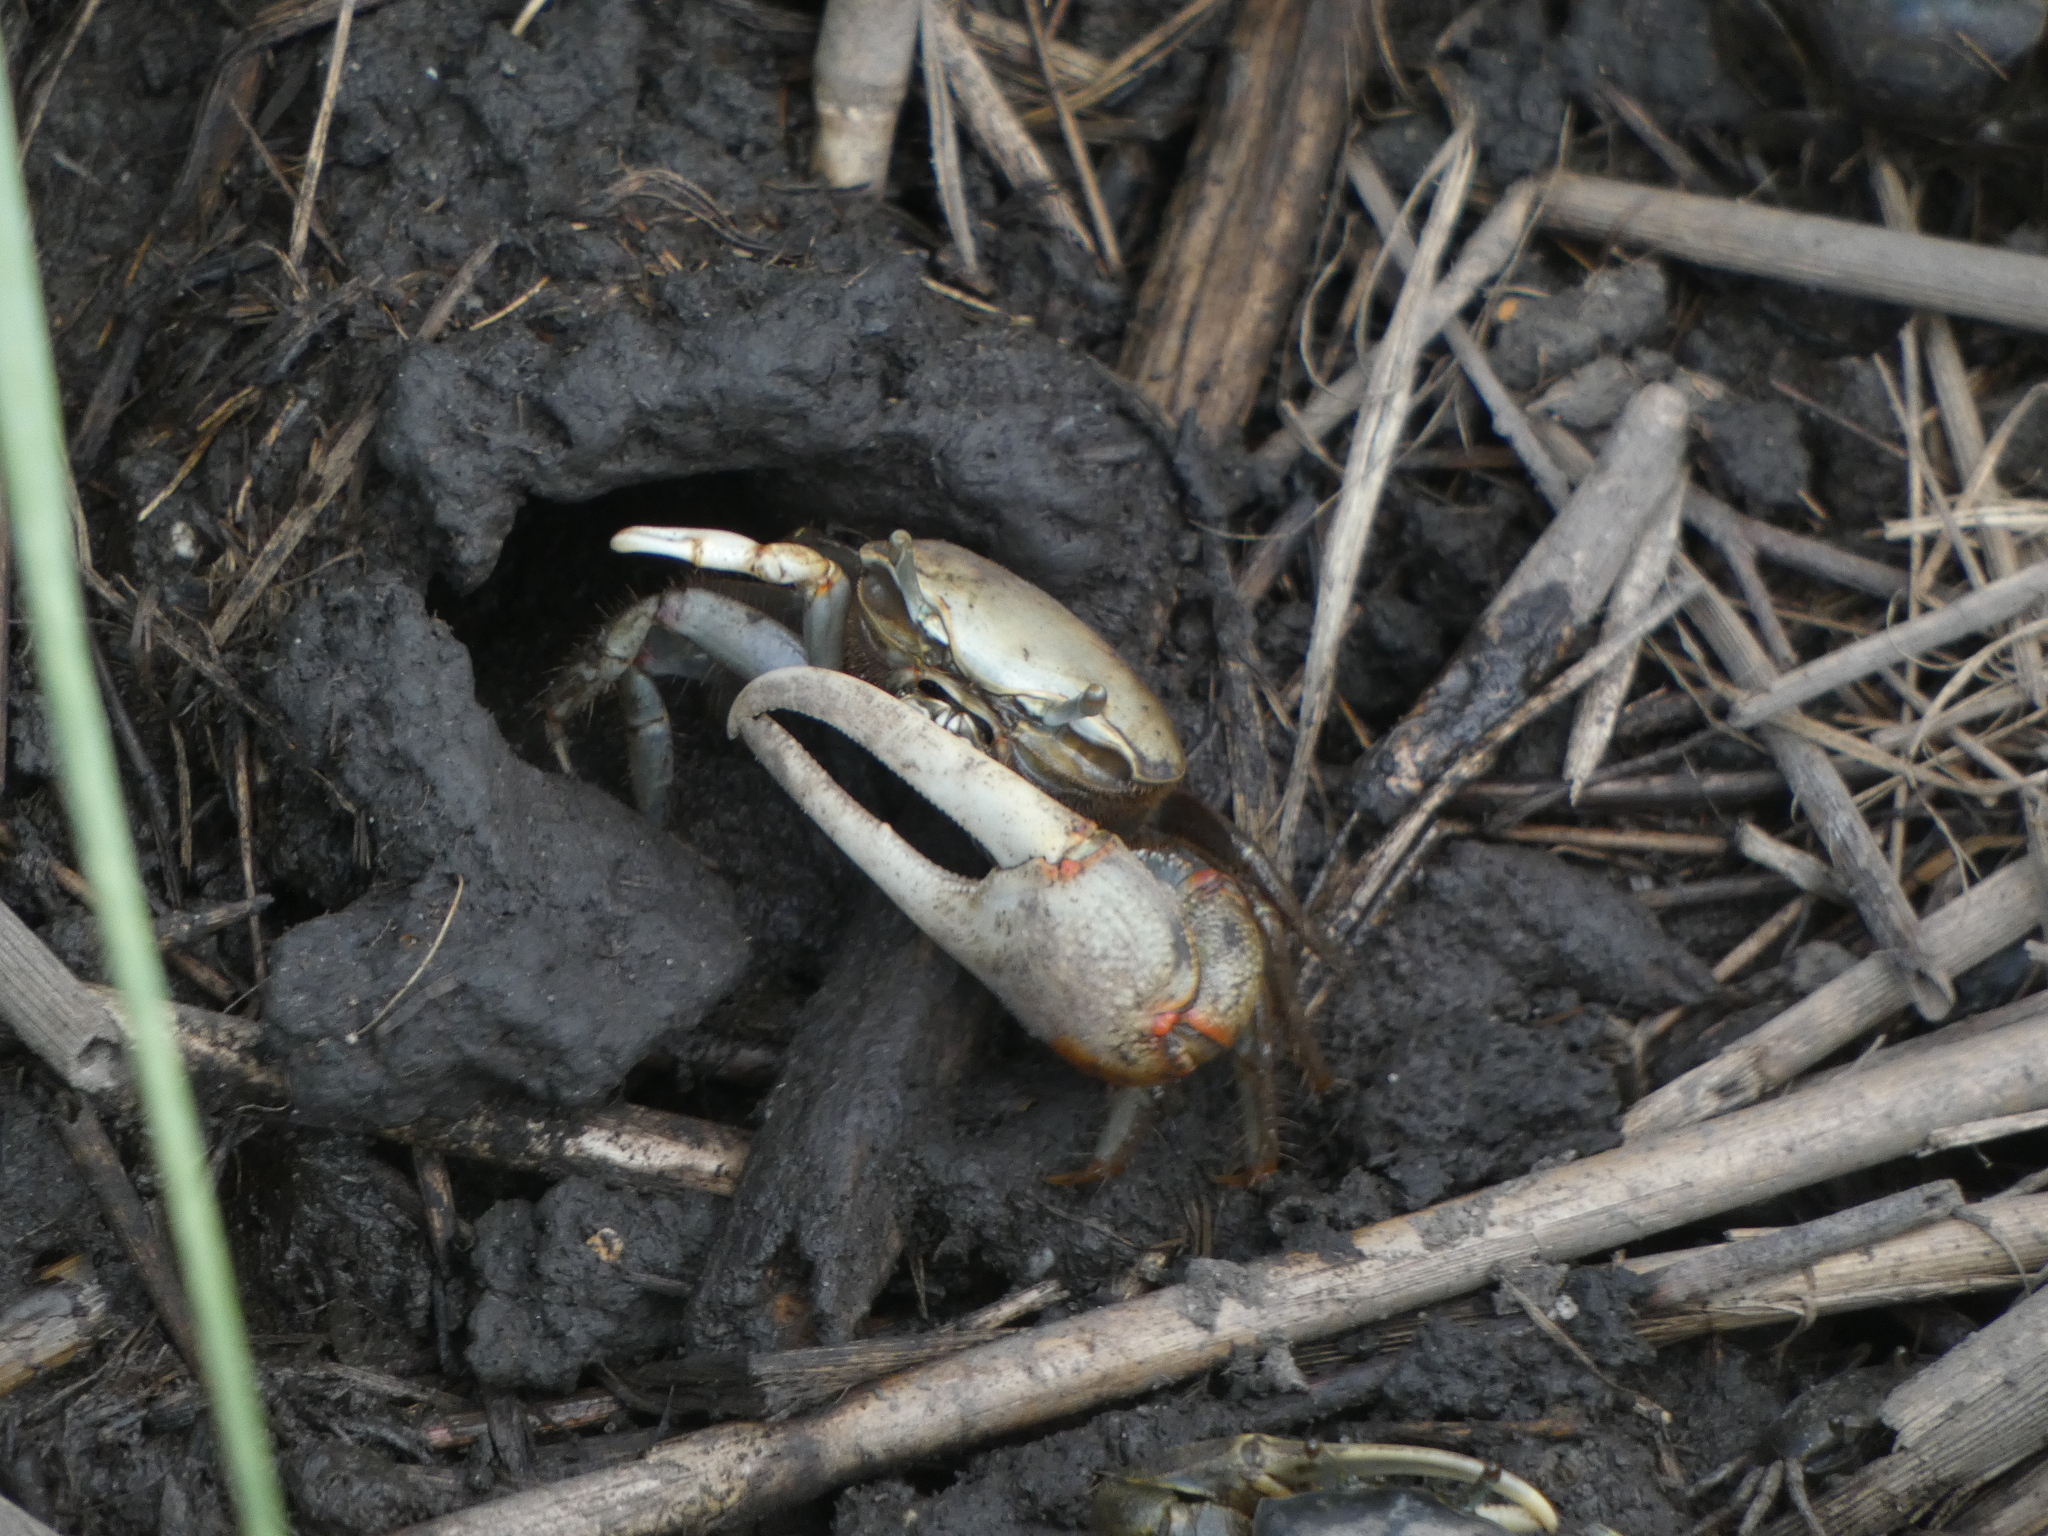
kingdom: Animalia
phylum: Arthropoda
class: Malacostraca
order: Decapoda
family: Ocypodidae
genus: Minuca
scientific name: Minuca minax
